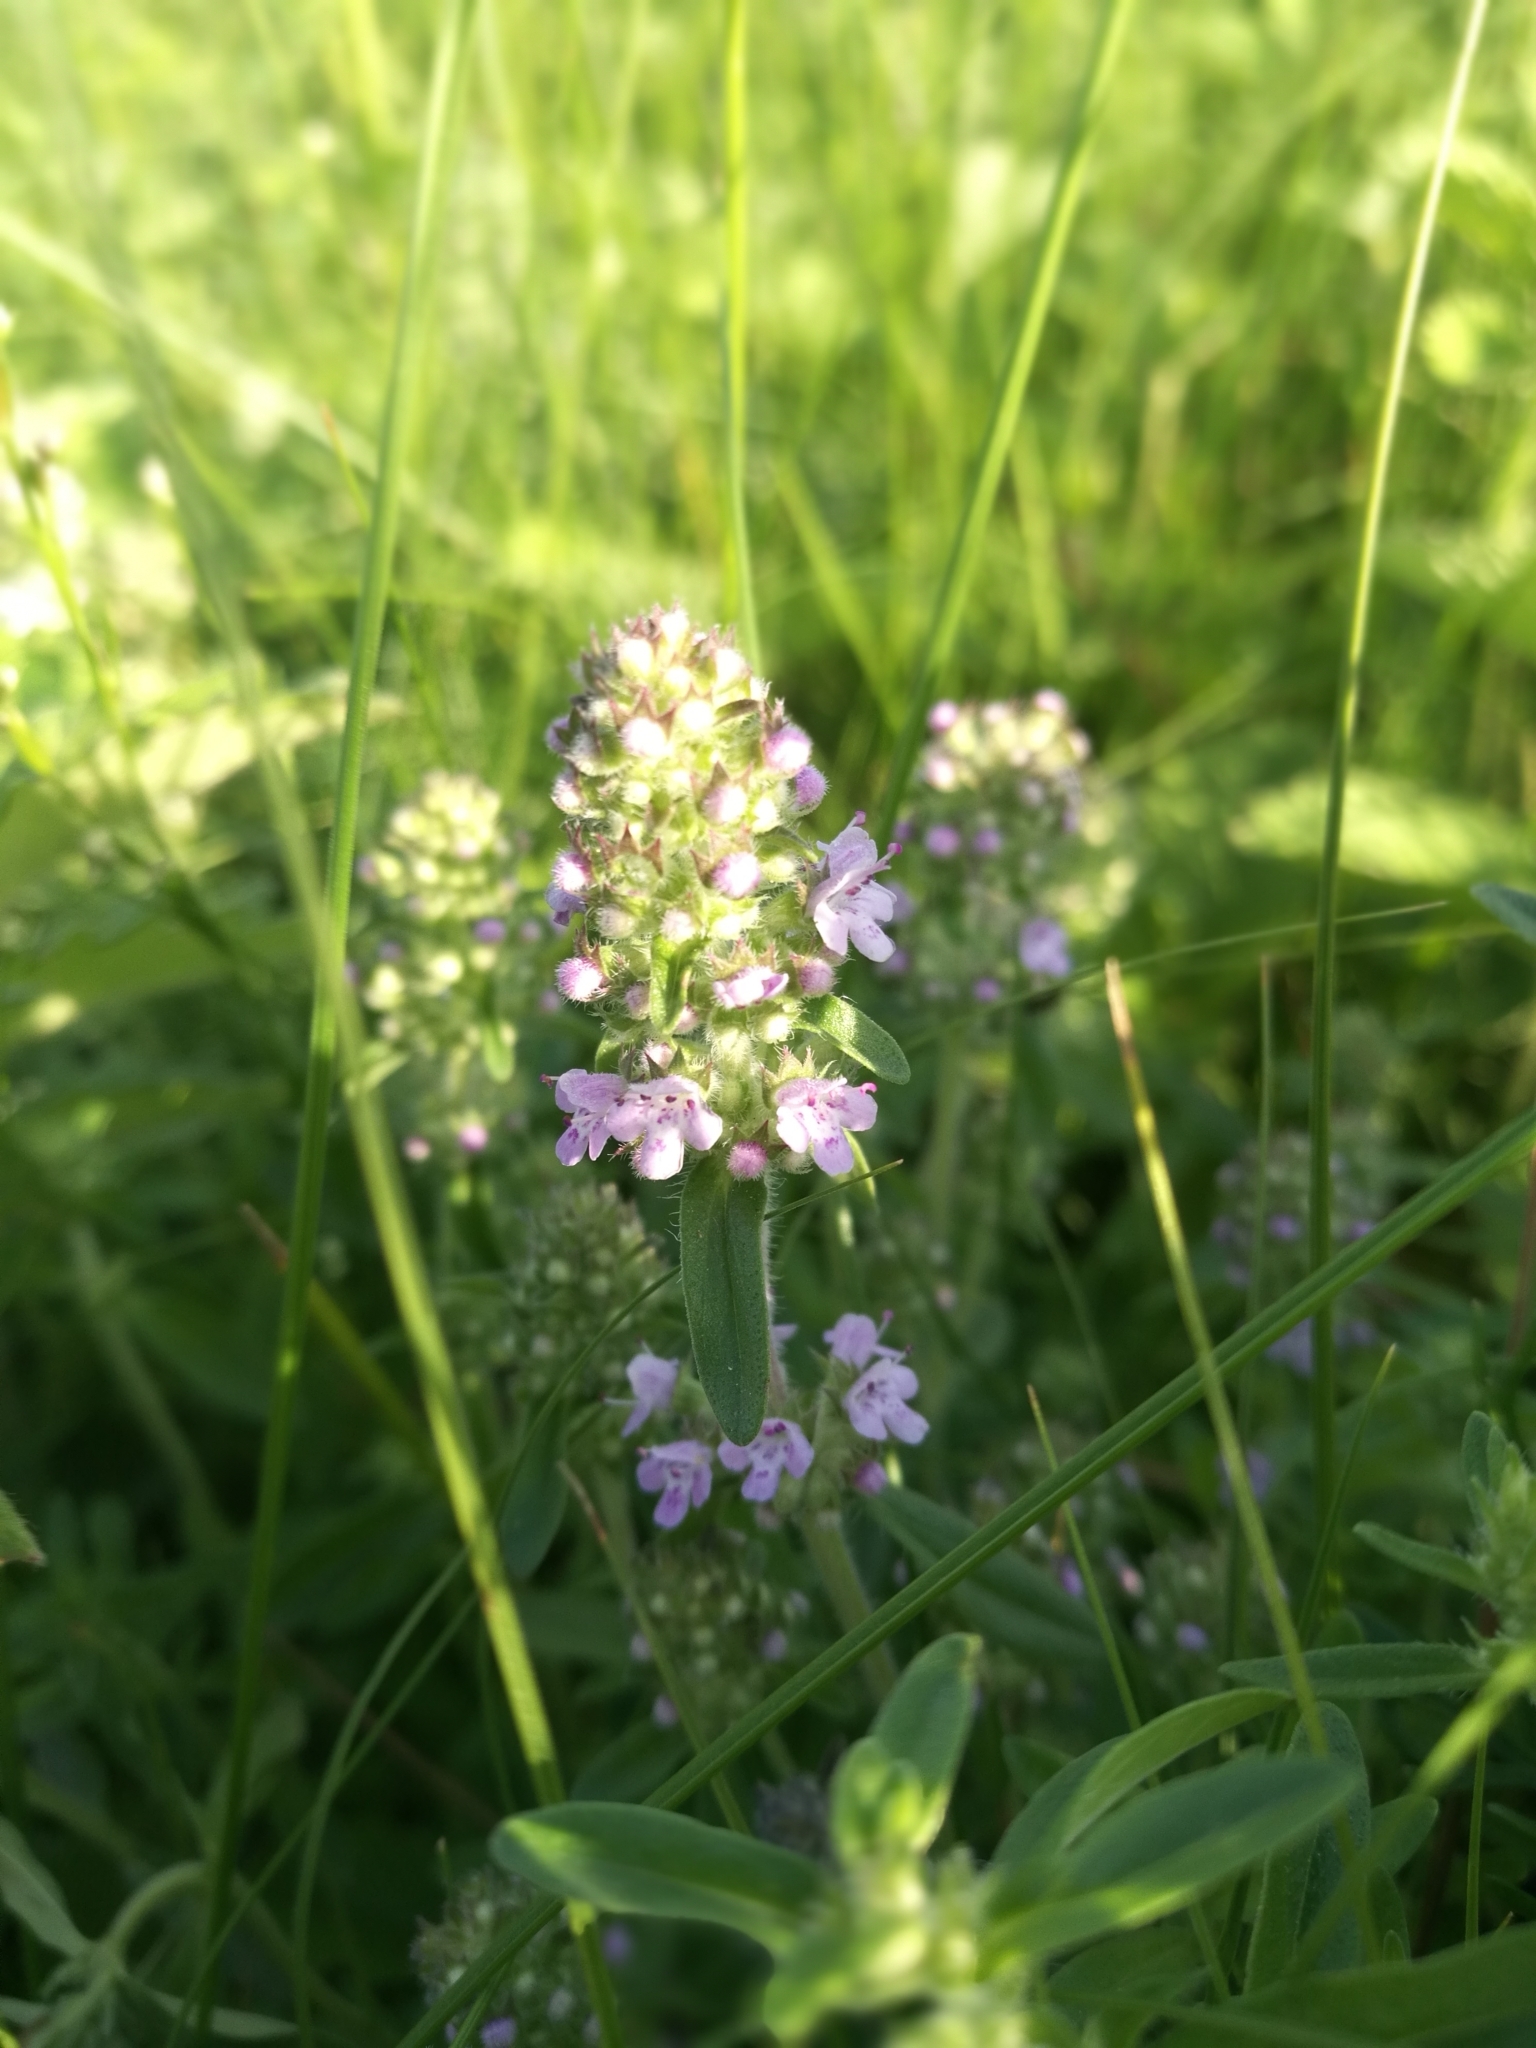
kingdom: Plantae
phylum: Tracheophyta
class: Magnoliopsida
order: Lamiales
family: Lamiaceae
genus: Thymus
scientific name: Thymus pannonicus
